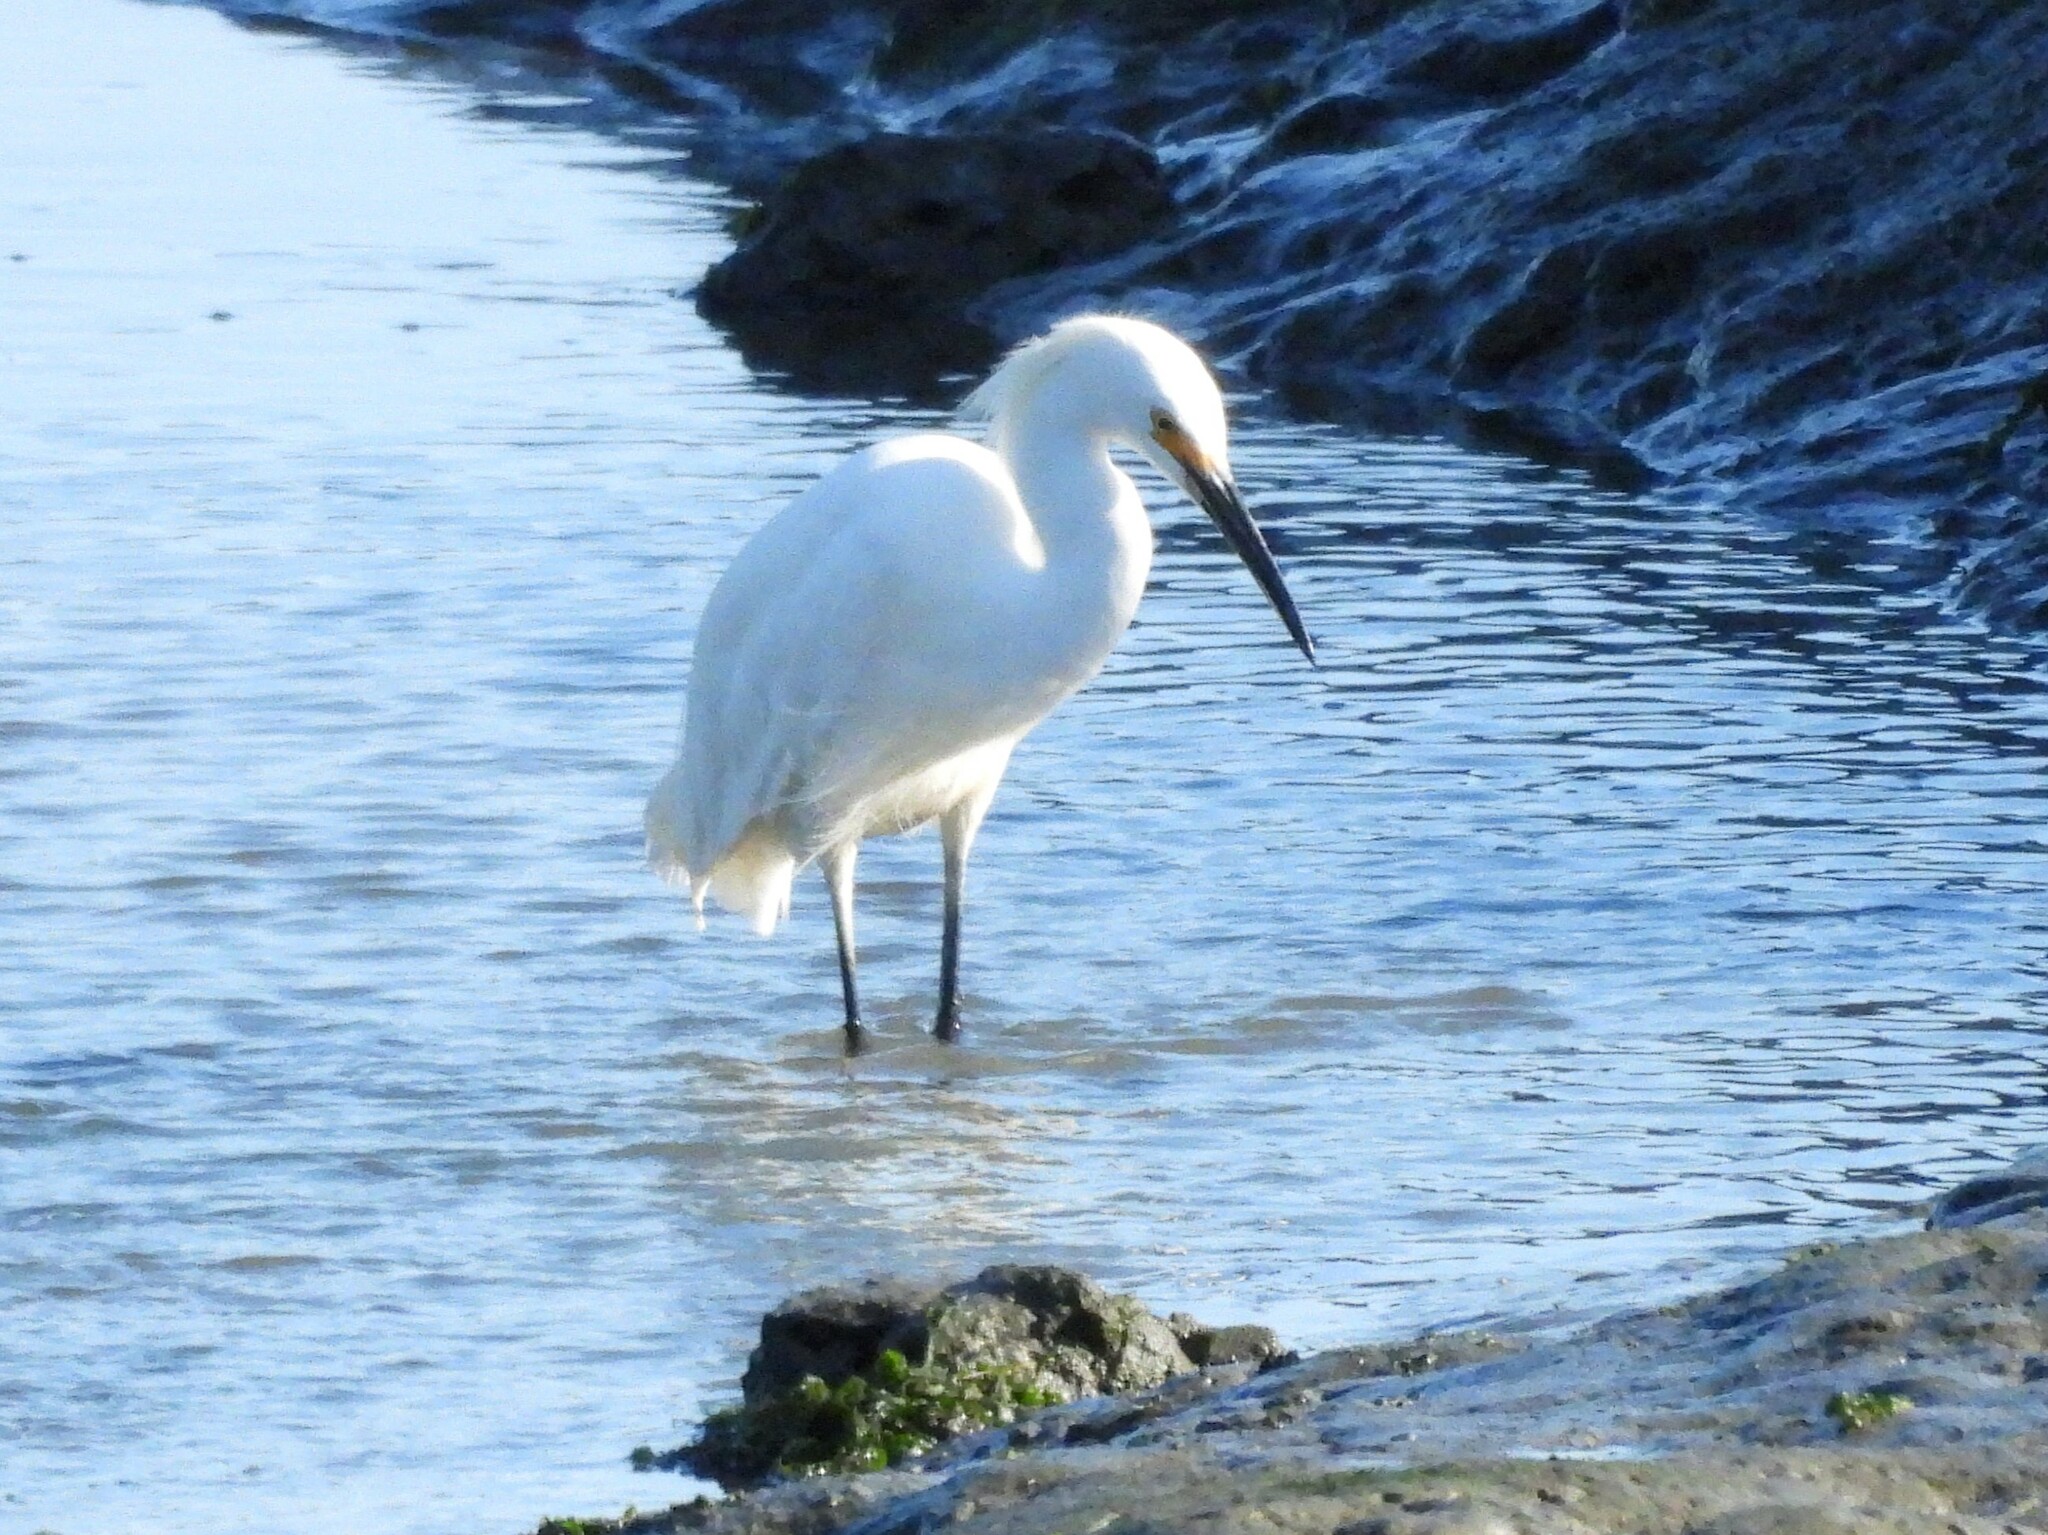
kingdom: Animalia
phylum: Chordata
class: Aves
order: Pelecaniformes
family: Ardeidae
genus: Egretta
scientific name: Egretta thula
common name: Snowy egret
